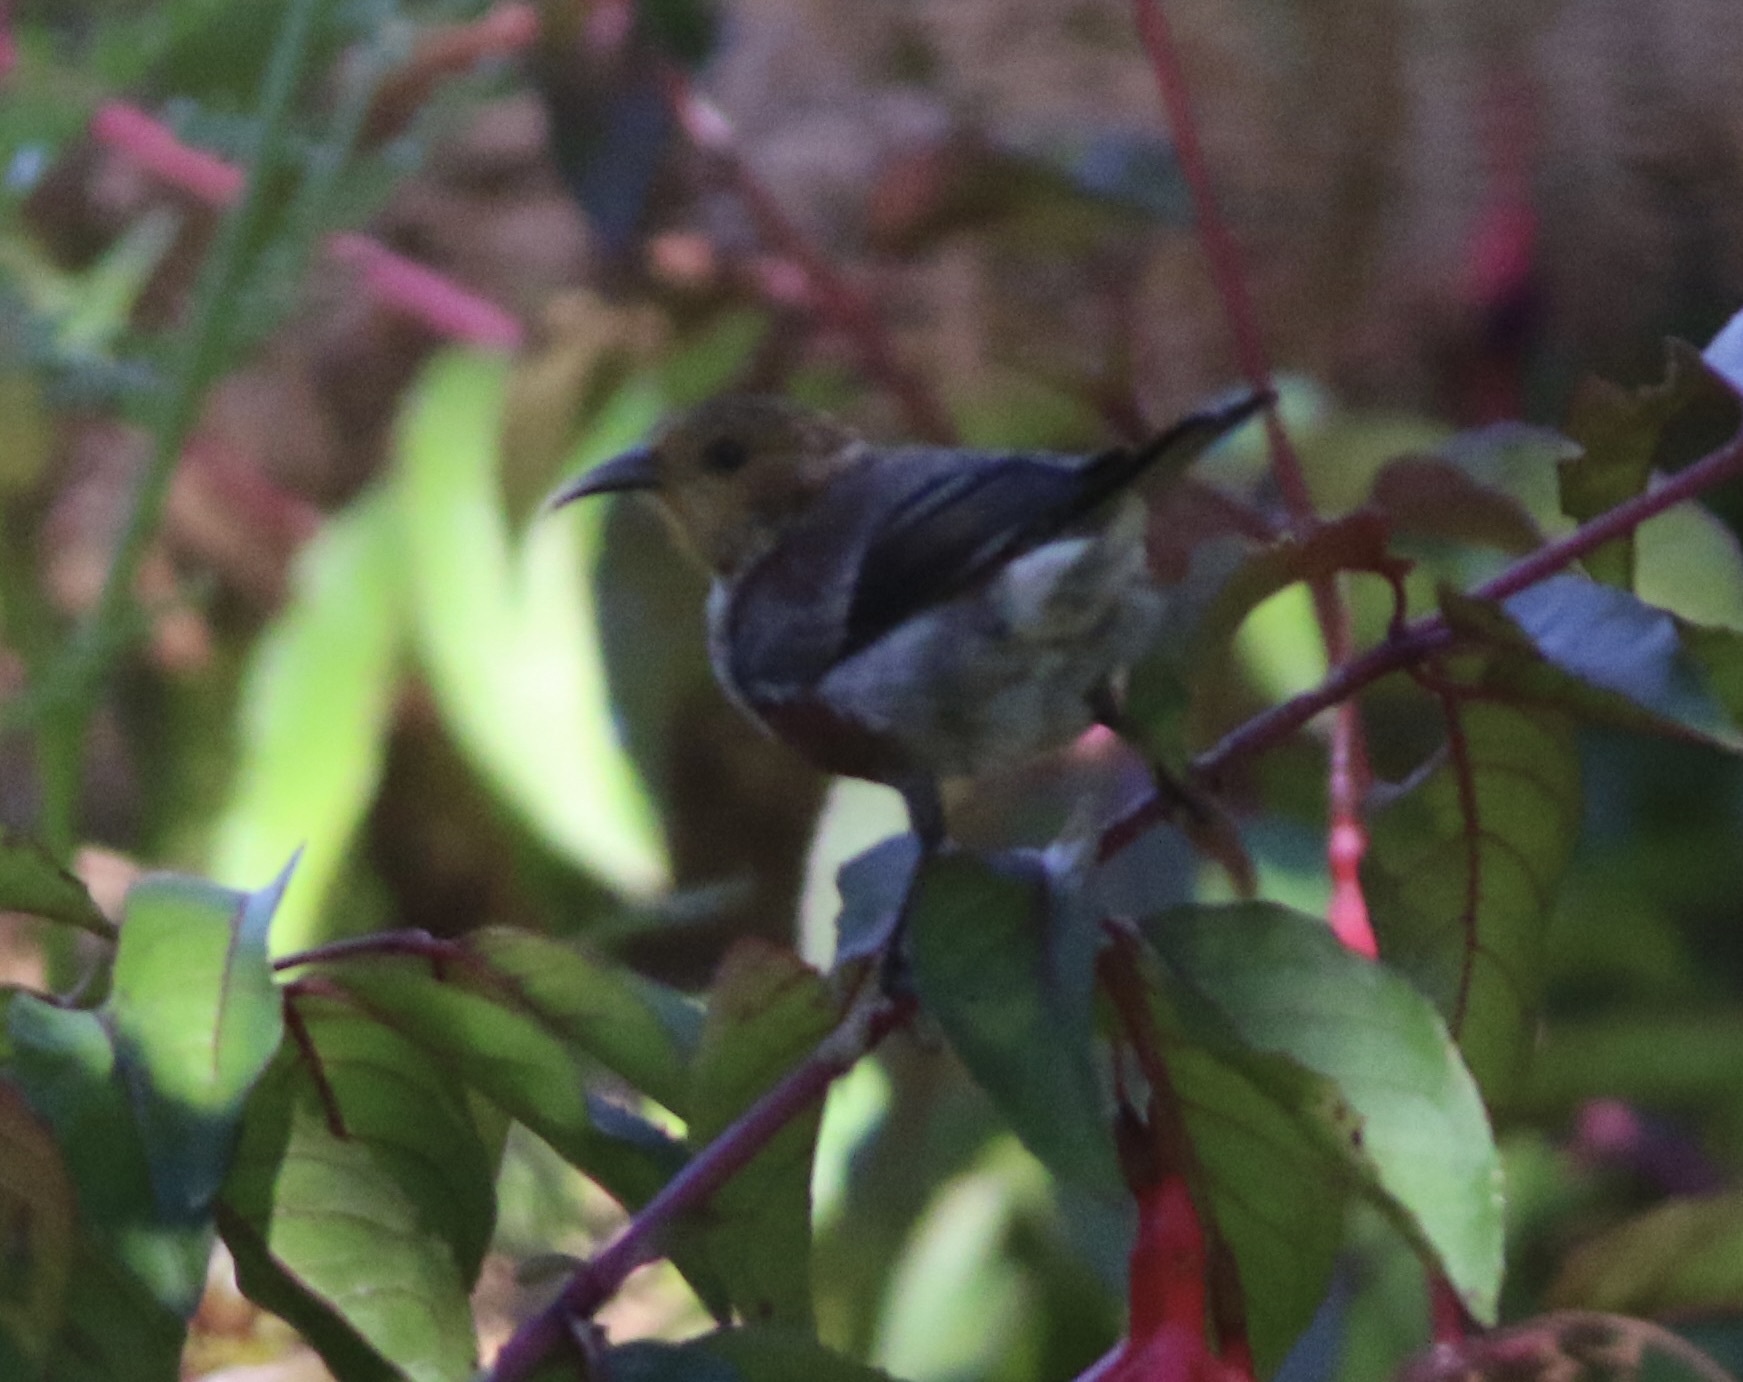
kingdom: Animalia
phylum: Chordata
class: Aves
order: Passeriformes
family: Fringillidae
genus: Himatione
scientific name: Himatione sanguinea
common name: Apapane
